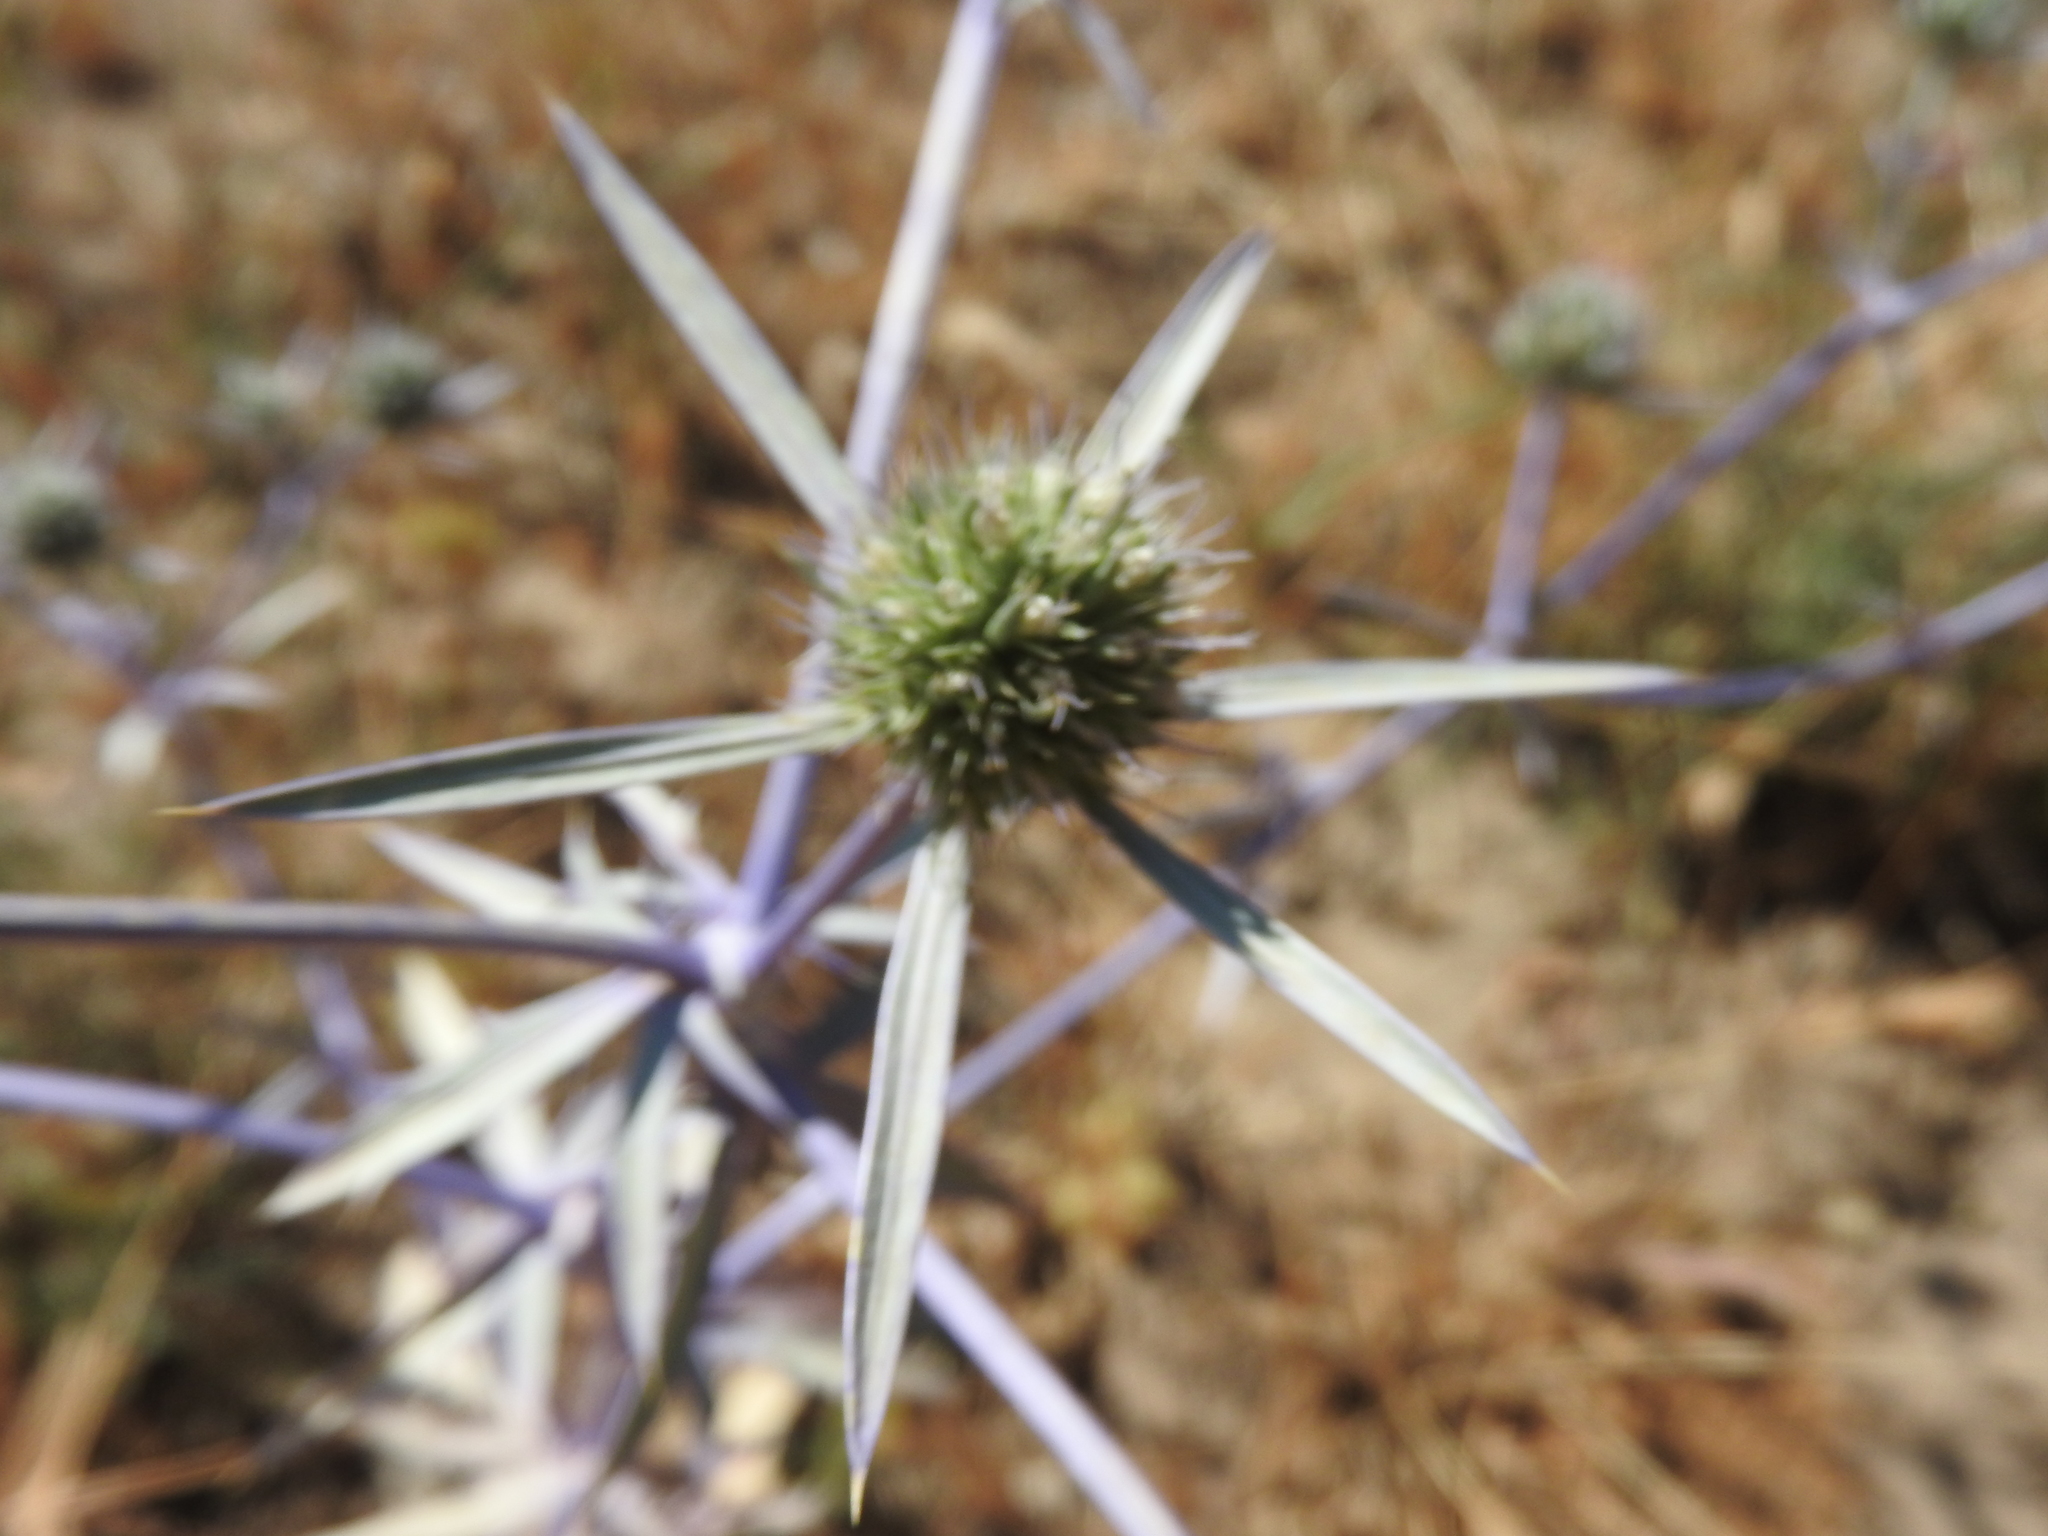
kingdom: Plantae
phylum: Tracheophyta
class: Magnoliopsida
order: Apiales
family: Apiaceae
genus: Eryngium
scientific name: Eryngium tricuspidatum
